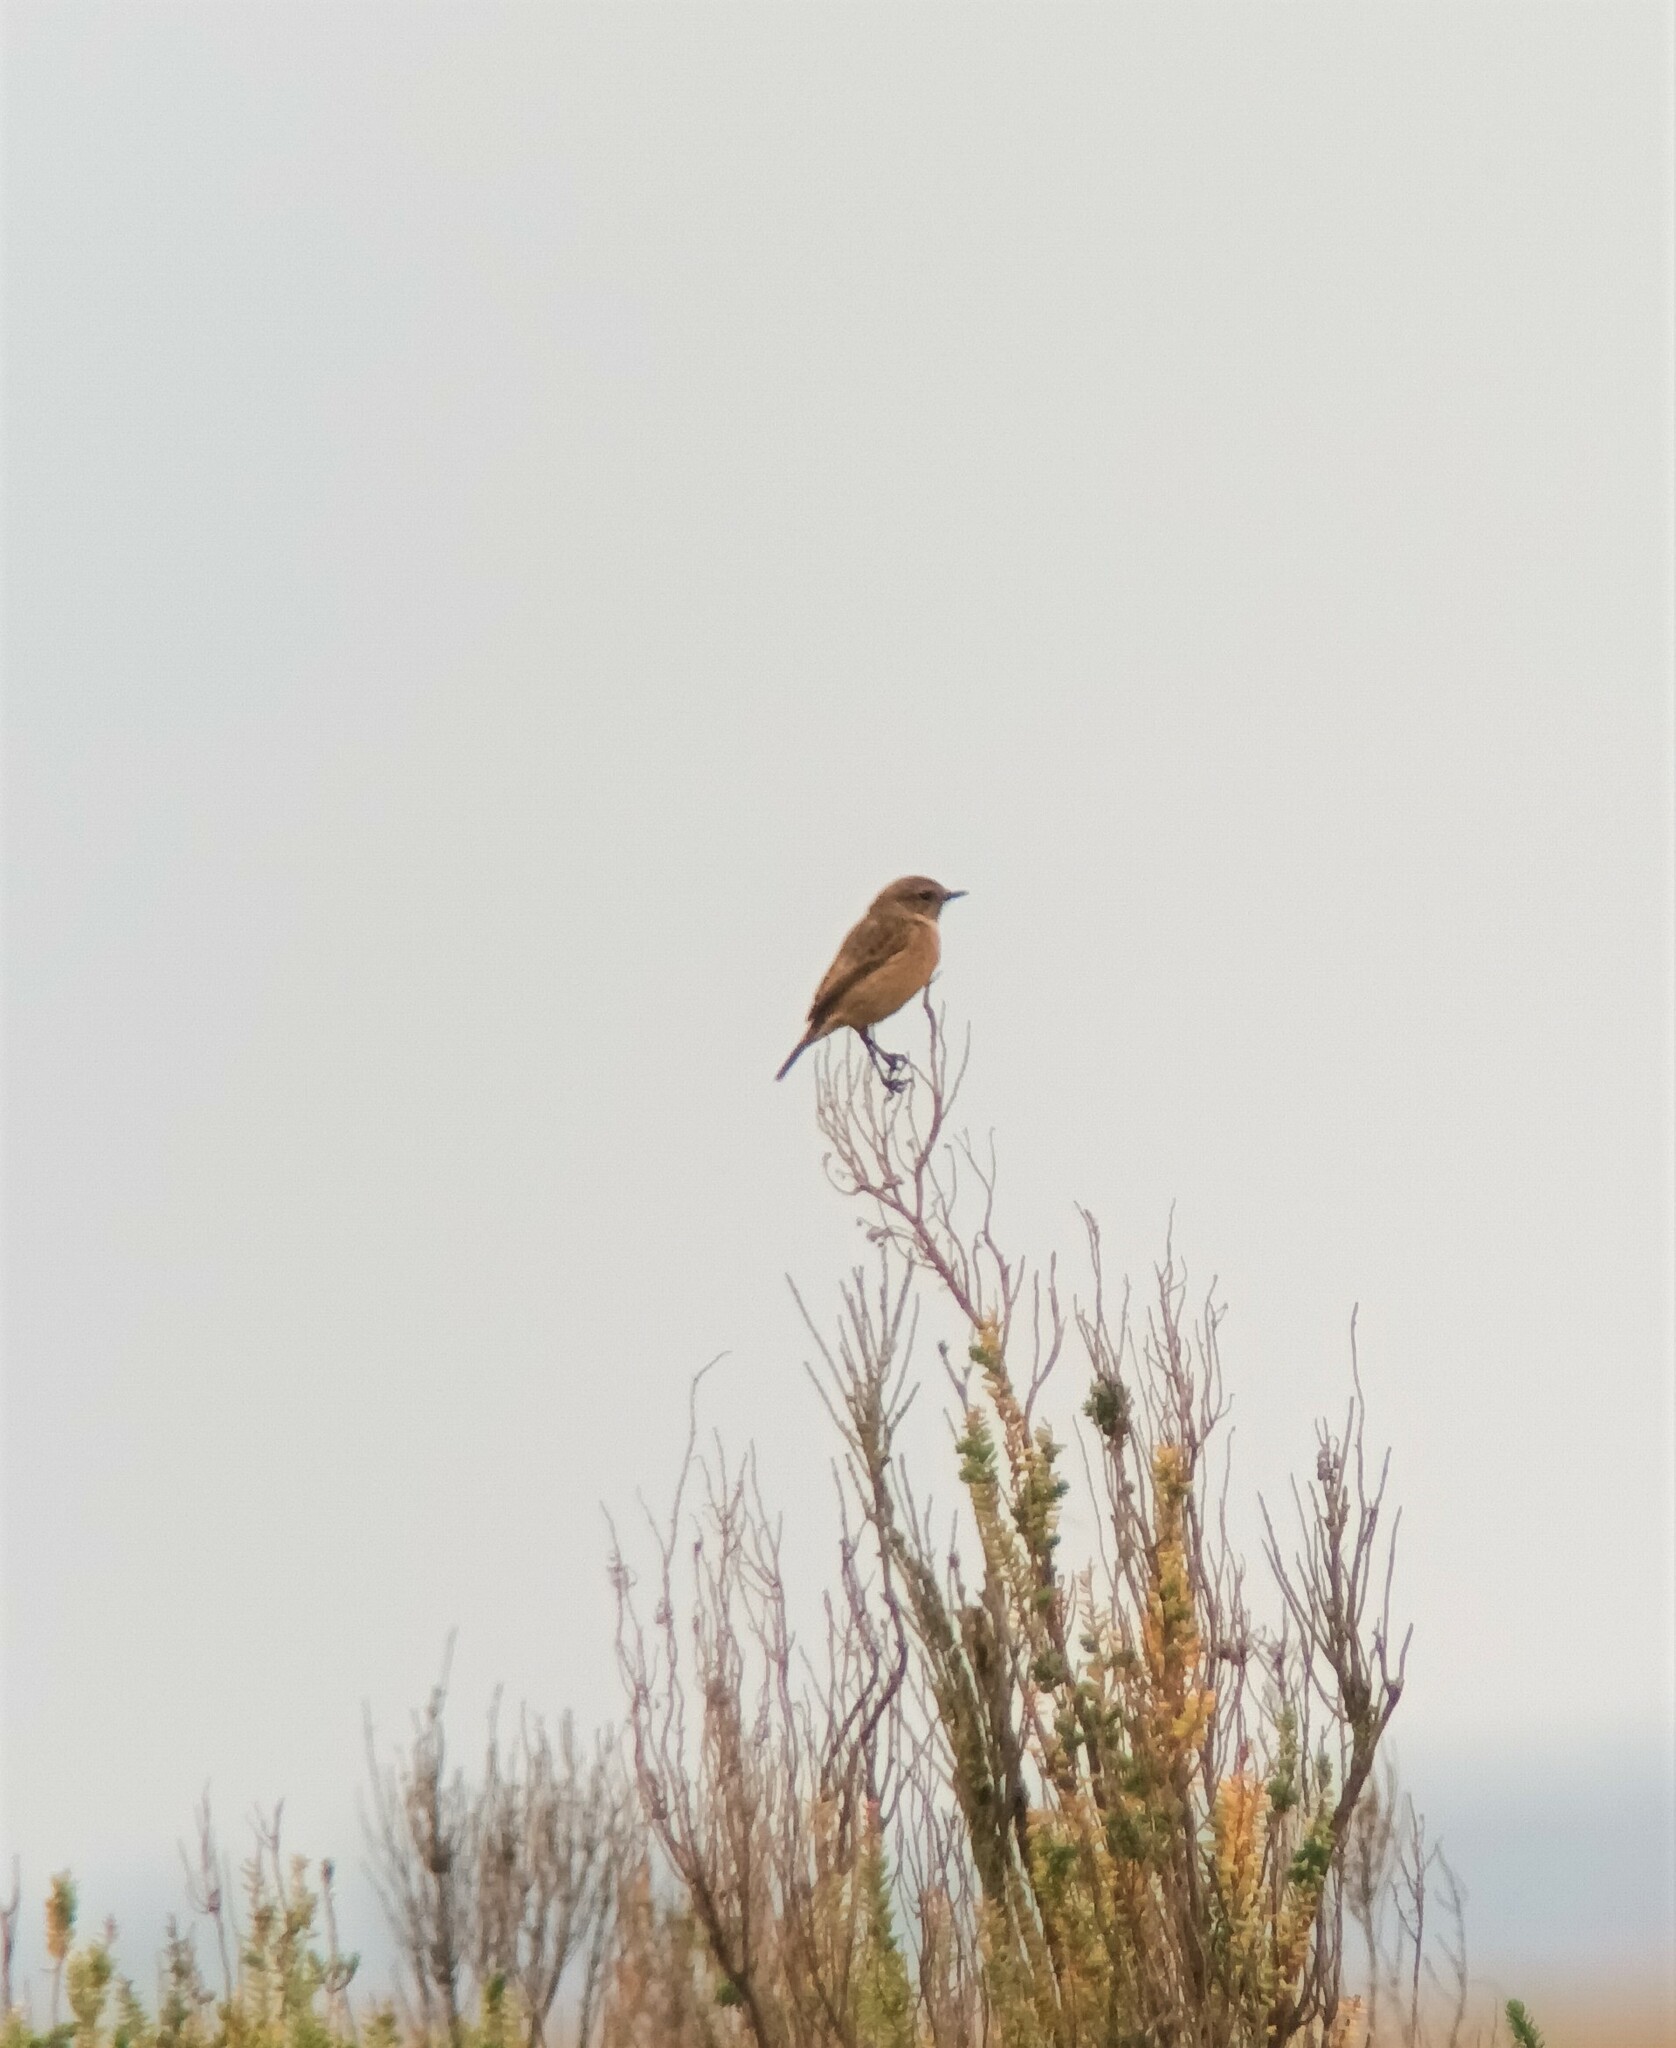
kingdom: Animalia
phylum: Chordata
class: Aves
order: Passeriformes
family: Muscicapidae
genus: Saxicola
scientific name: Saxicola rubicola
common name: European stonechat
